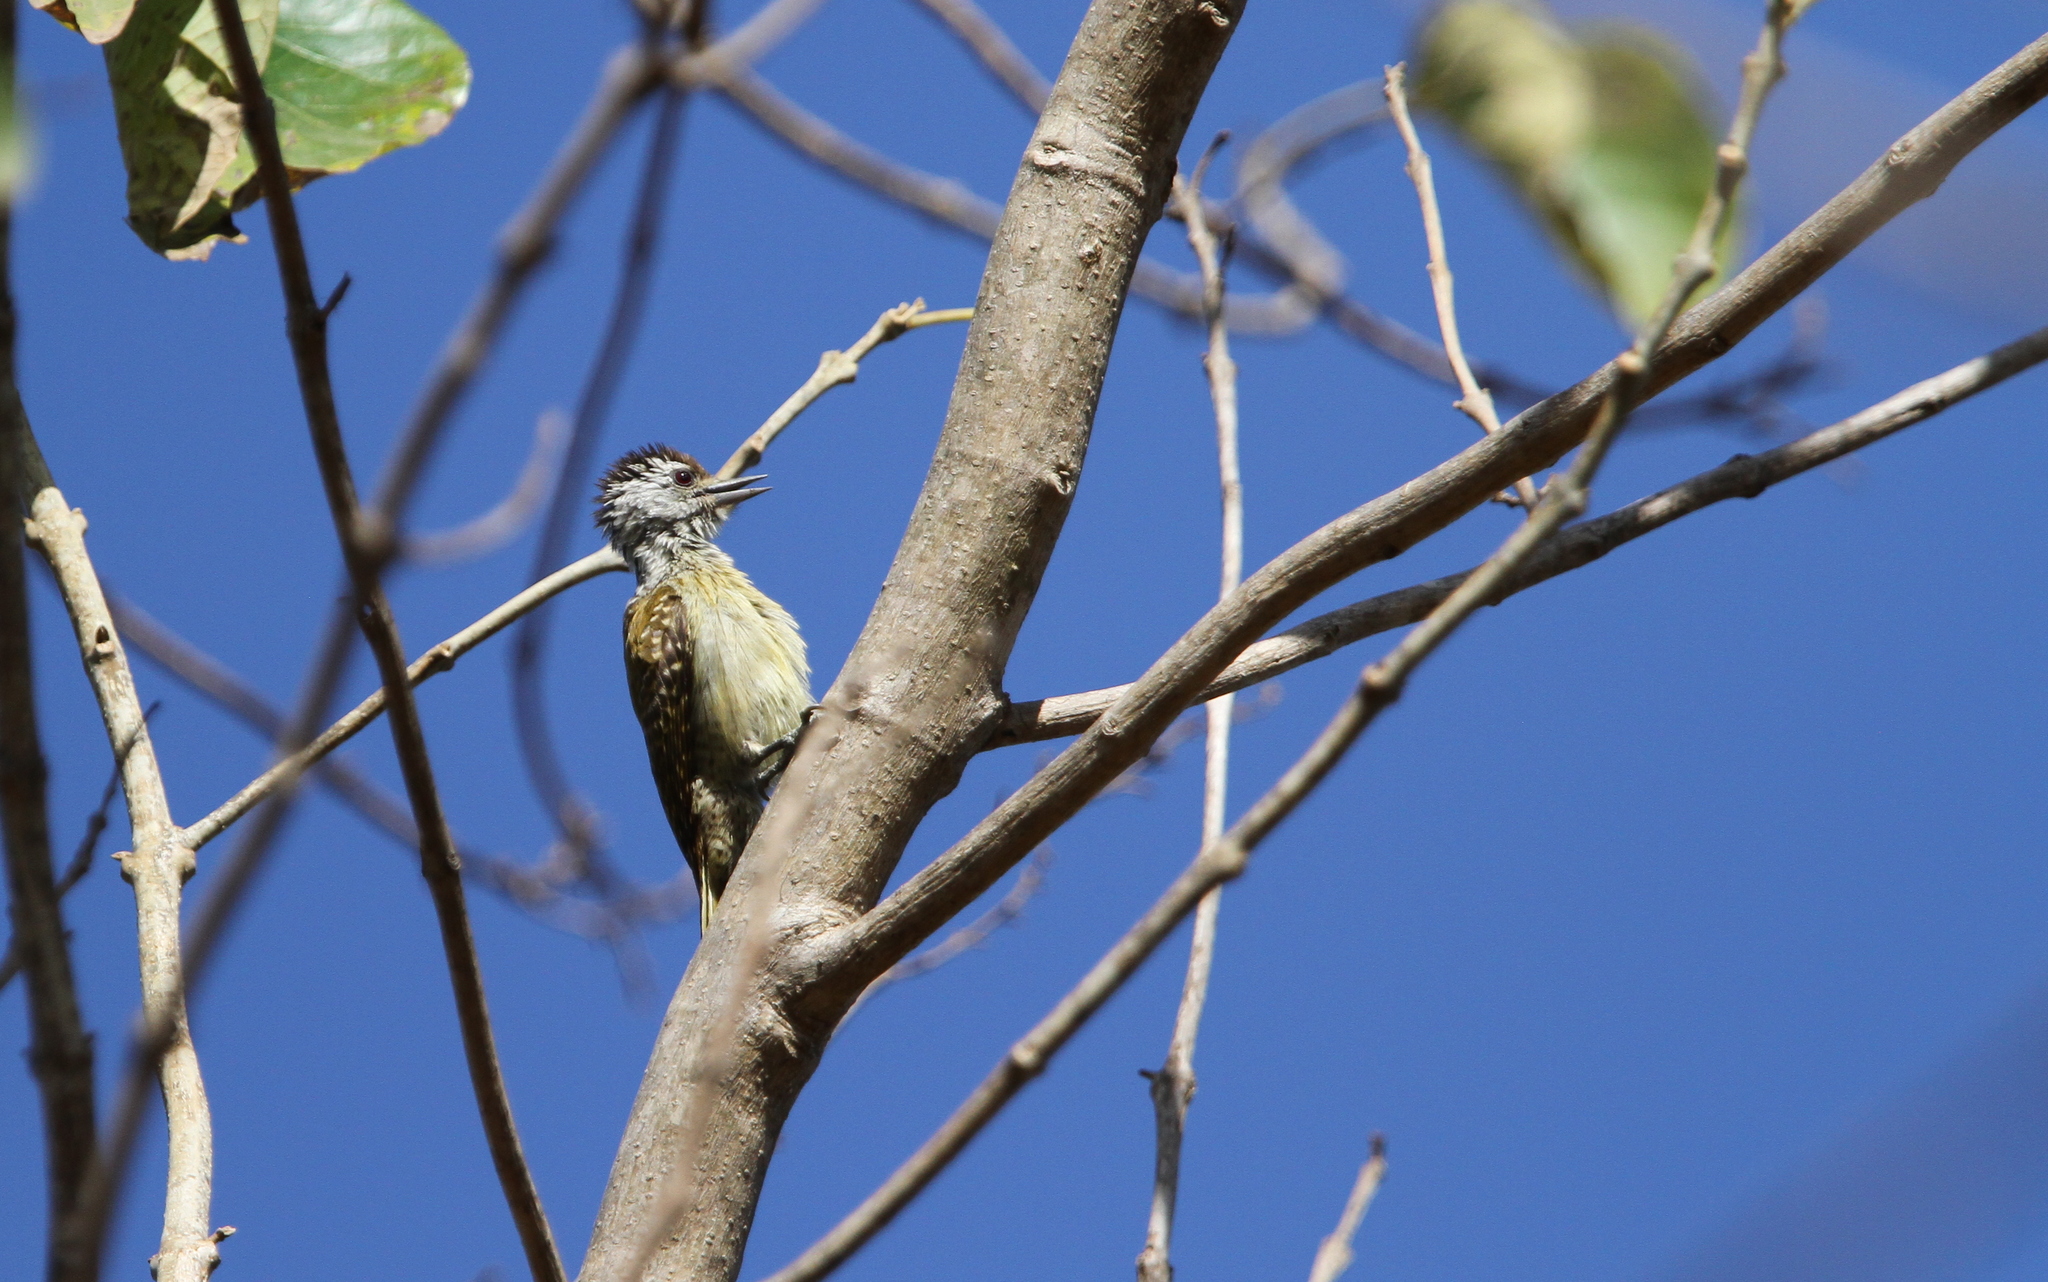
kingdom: Animalia
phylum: Chordata
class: Aves
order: Piciformes
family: Picidae
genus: Dendropicos
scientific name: Dendropicos fuscescens
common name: Cardinal woodpecker
